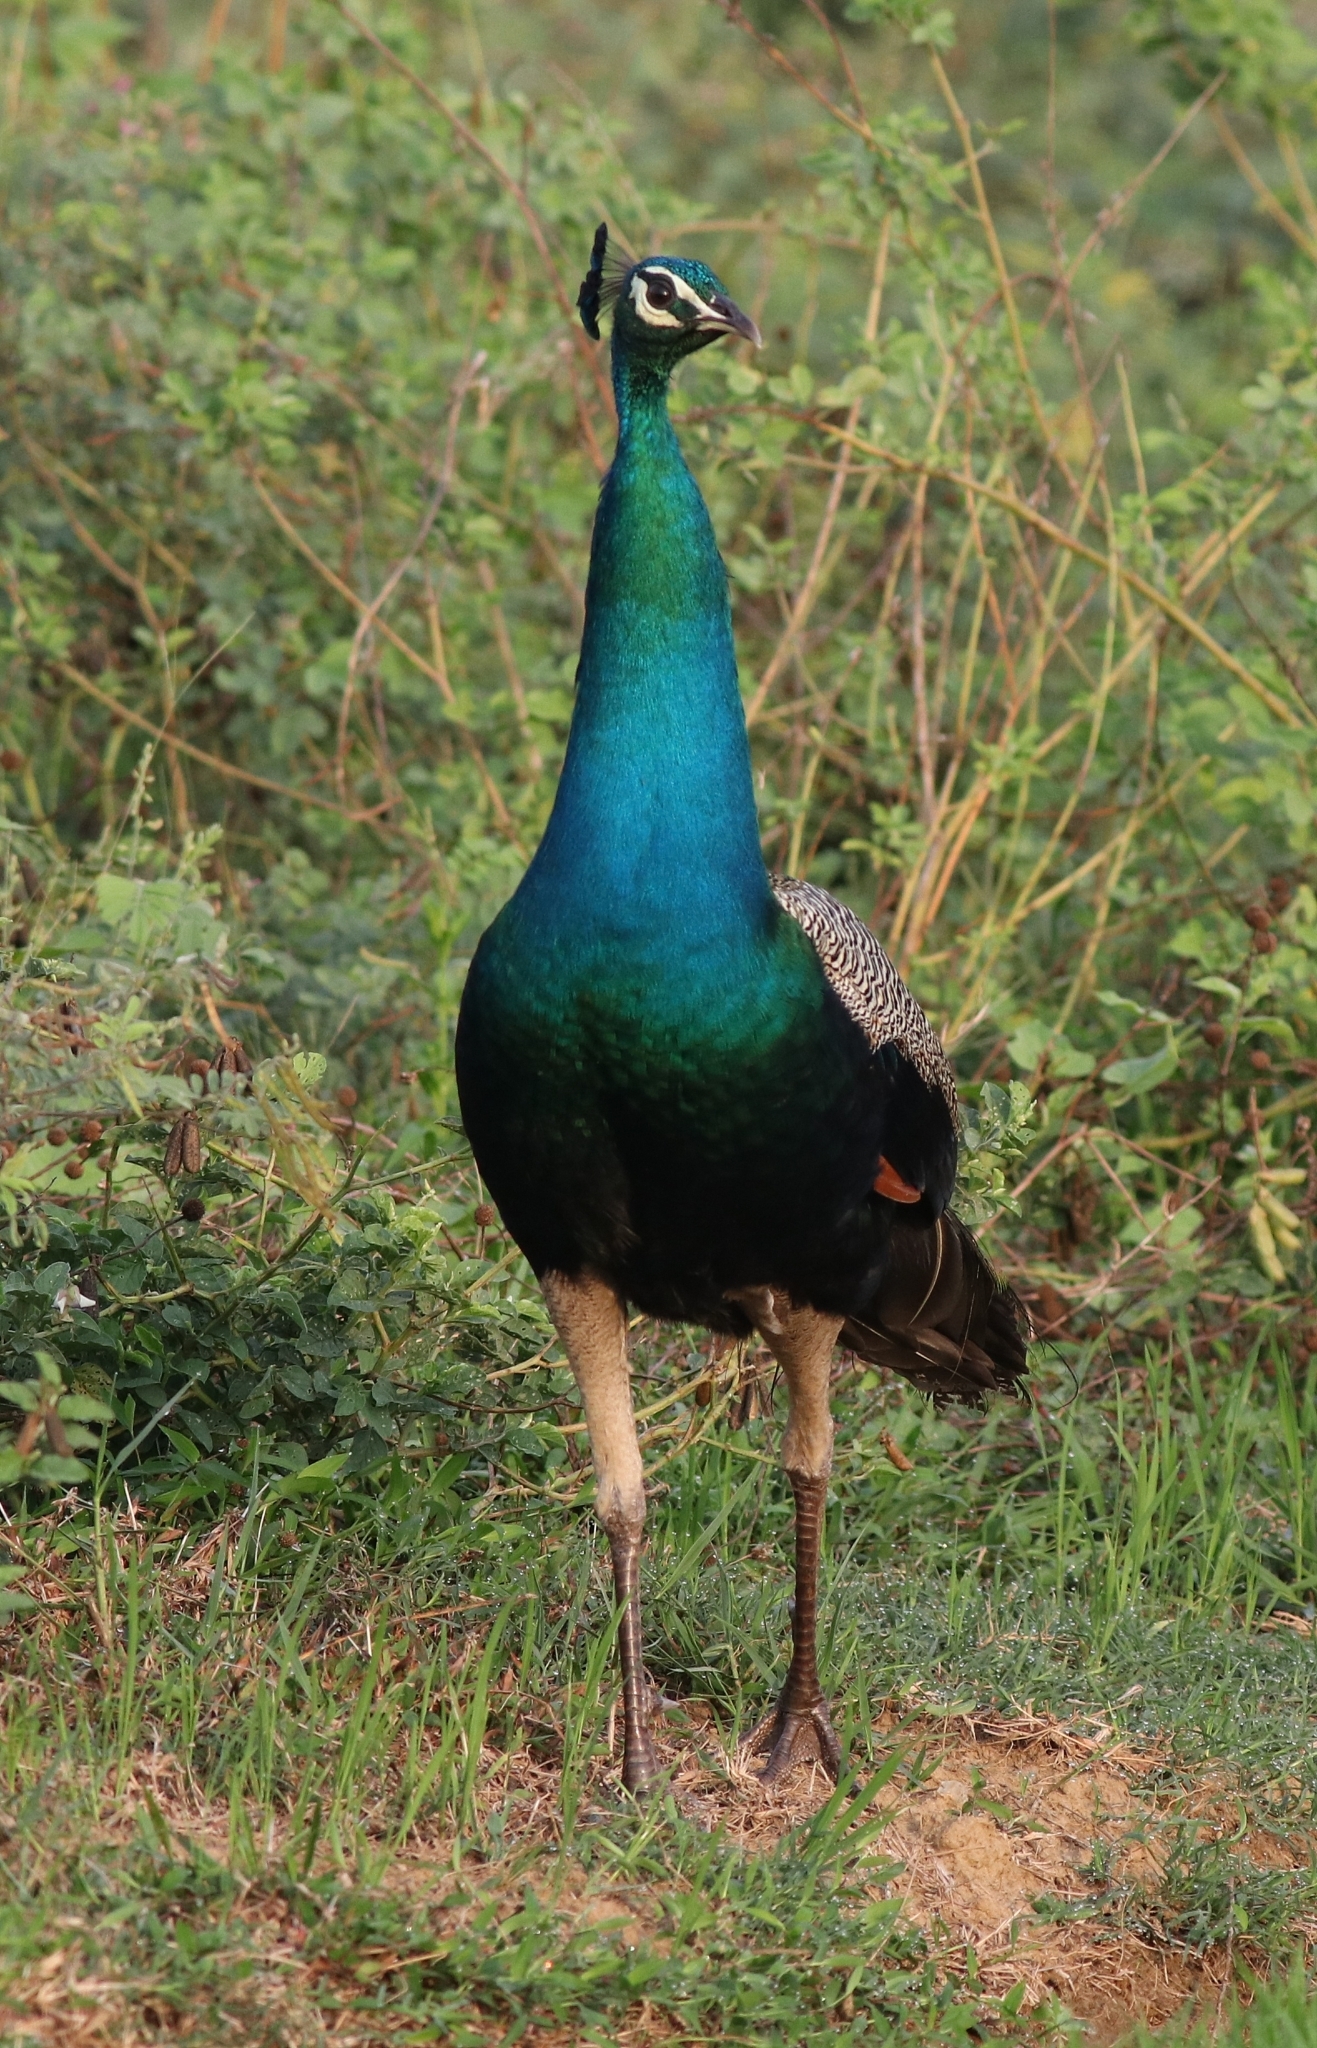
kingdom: Animalia
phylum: Chordata
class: Aves
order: Galliformes
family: Phasianidae
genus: Pavo
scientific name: Pavo cristatus
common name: Indian peafowl
